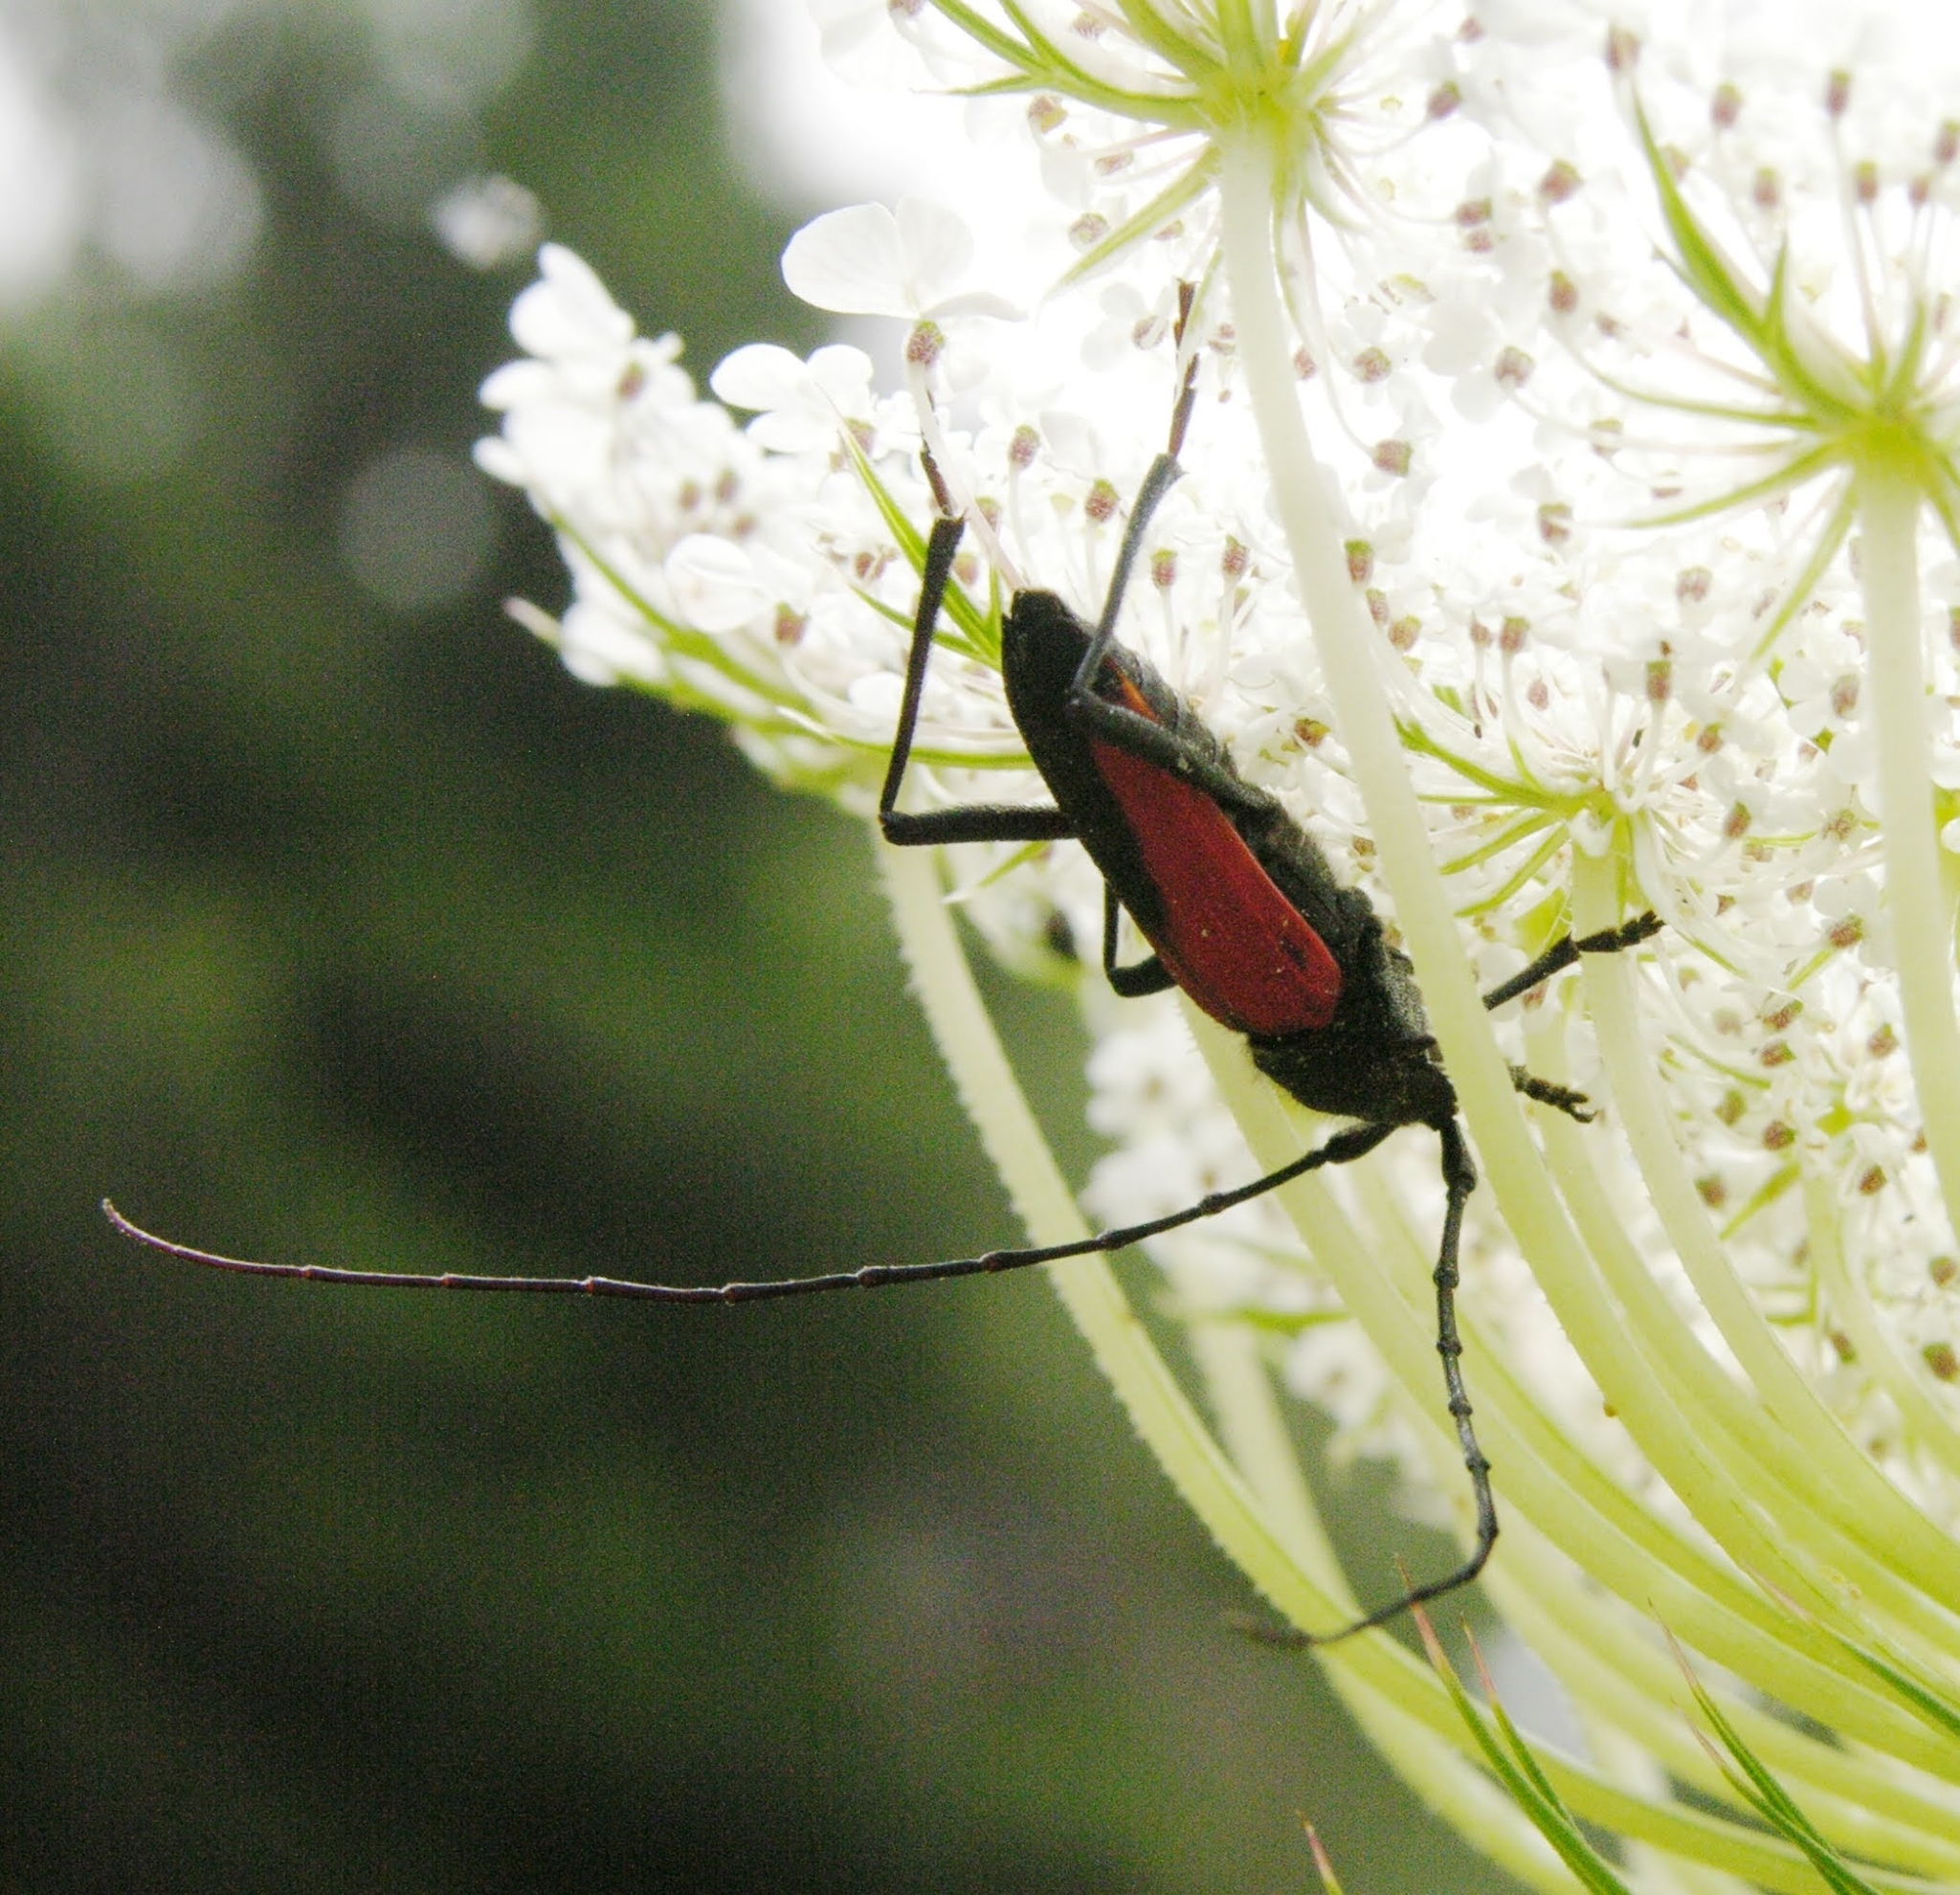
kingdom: Animalia
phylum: Arthropoda
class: Insecta
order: Coleoptera
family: Cerambycidae
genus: Purpuricenus
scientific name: Purpuricenus budensis
